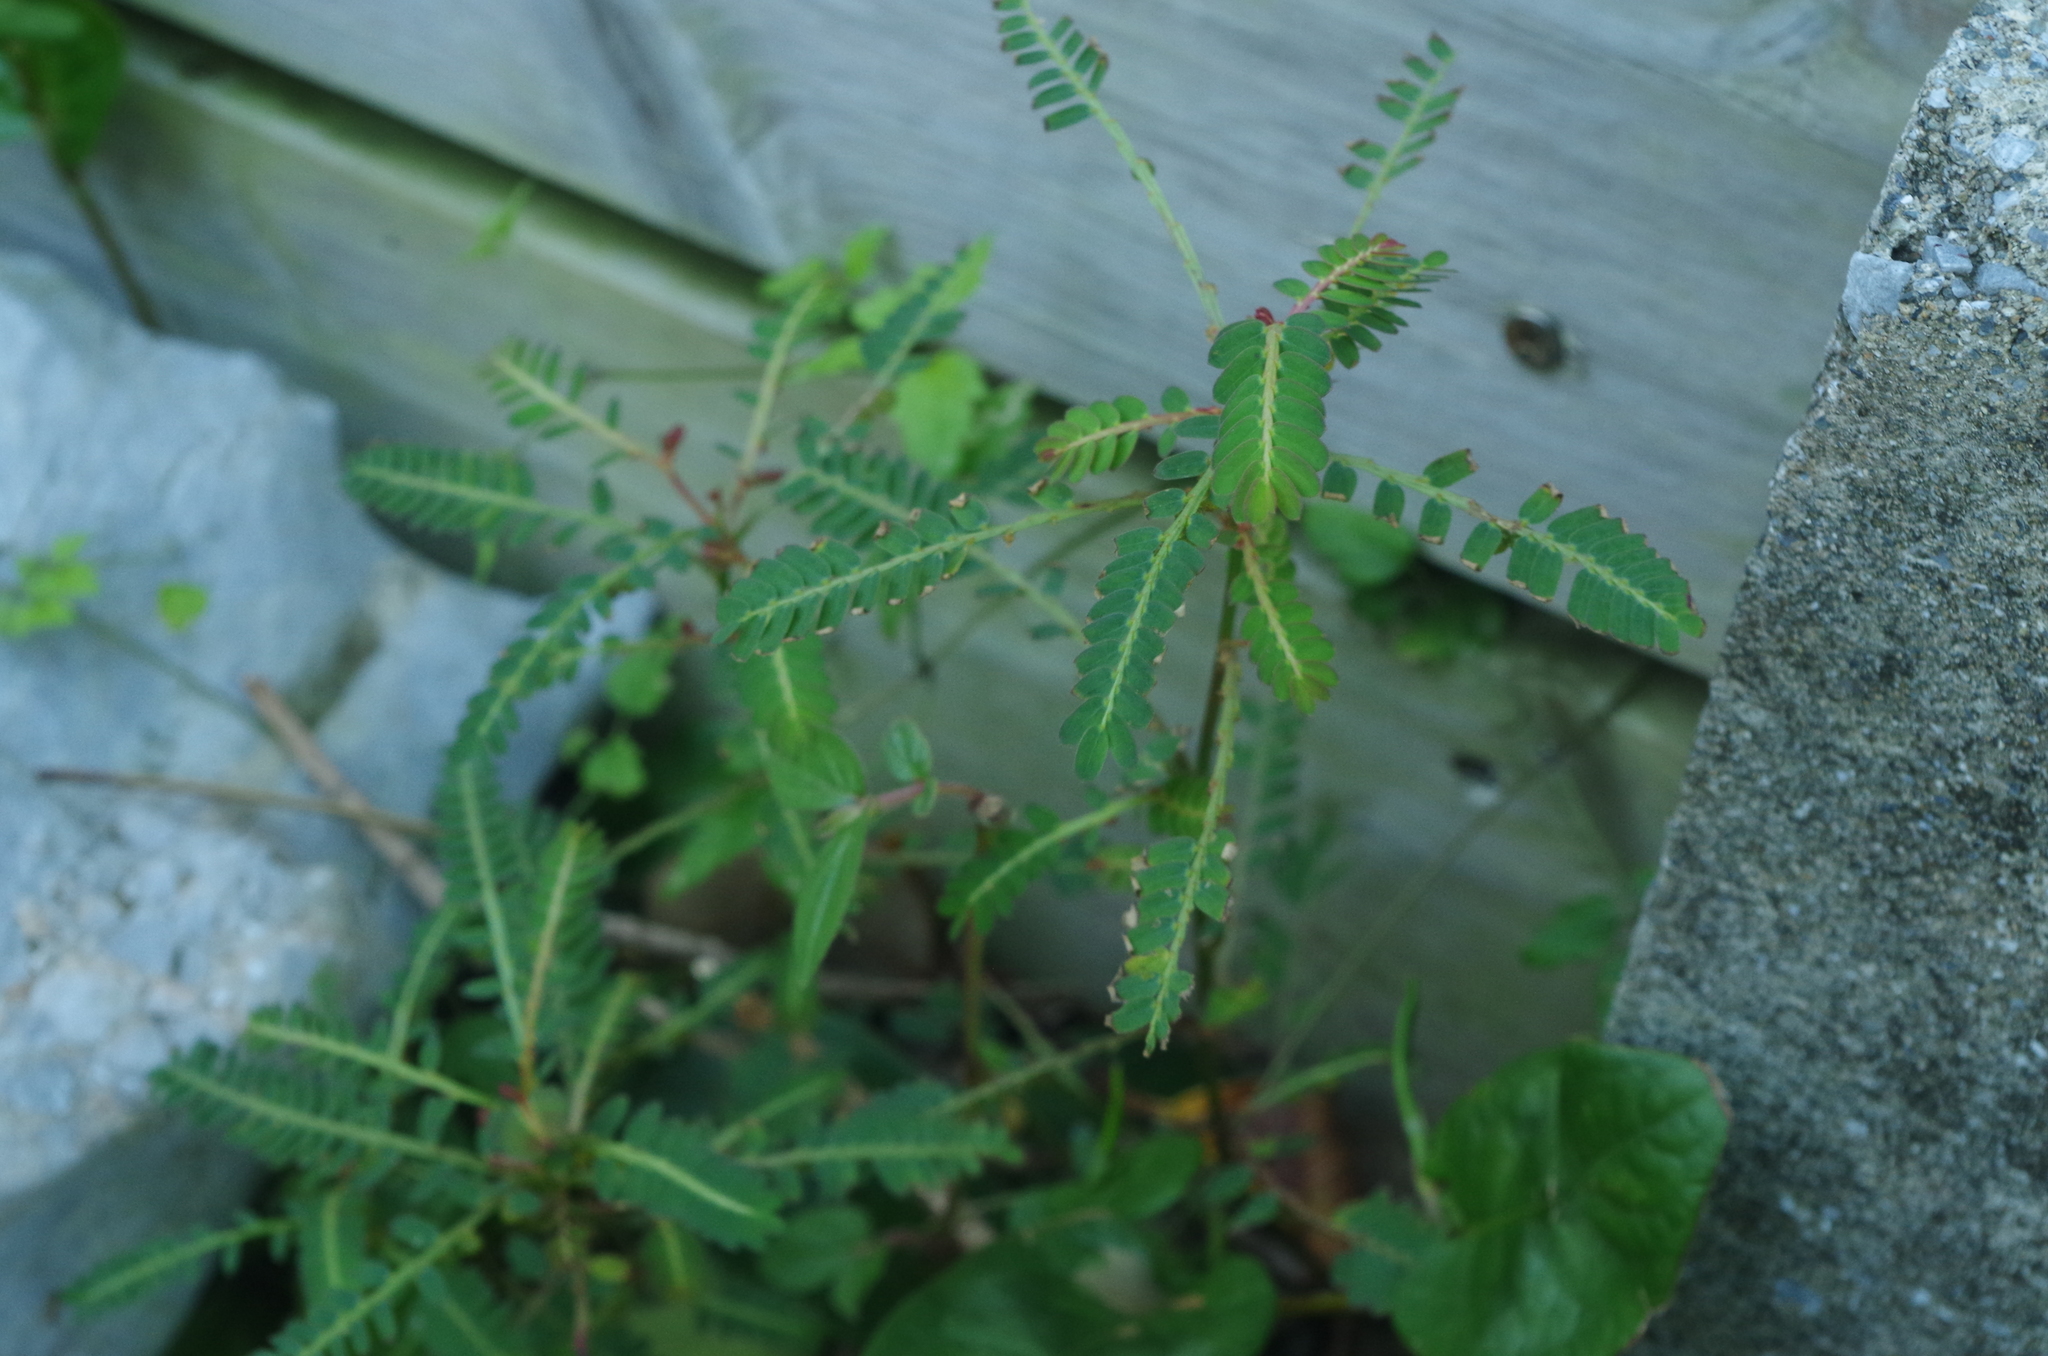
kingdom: Plantae
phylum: Tracheophyta
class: Magnoliopsida
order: Malpighiales
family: Phyllanthaceae
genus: Phyllanthus
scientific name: Phyllanthus urinaria
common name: Chamber bitter
